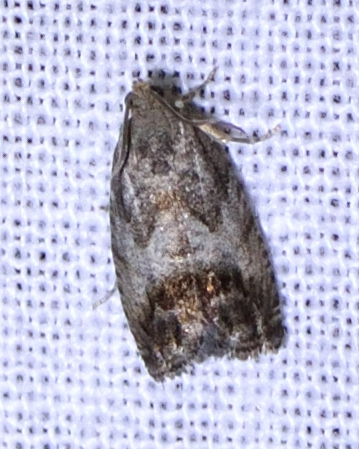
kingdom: Animalia
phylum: Arthropoda
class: Insecta
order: Lepidoptera
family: Tortricidae
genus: Cydia
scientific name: Cydia splendana
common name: De: kastanienwickler, eichenwickler es: oruga de la castaña fr: carpocapse des châtaignes it: cidia o tortrice tardiva delle castagne pt: bichado das castanhas gb: acorn moth, chestnut fruit tortrix
